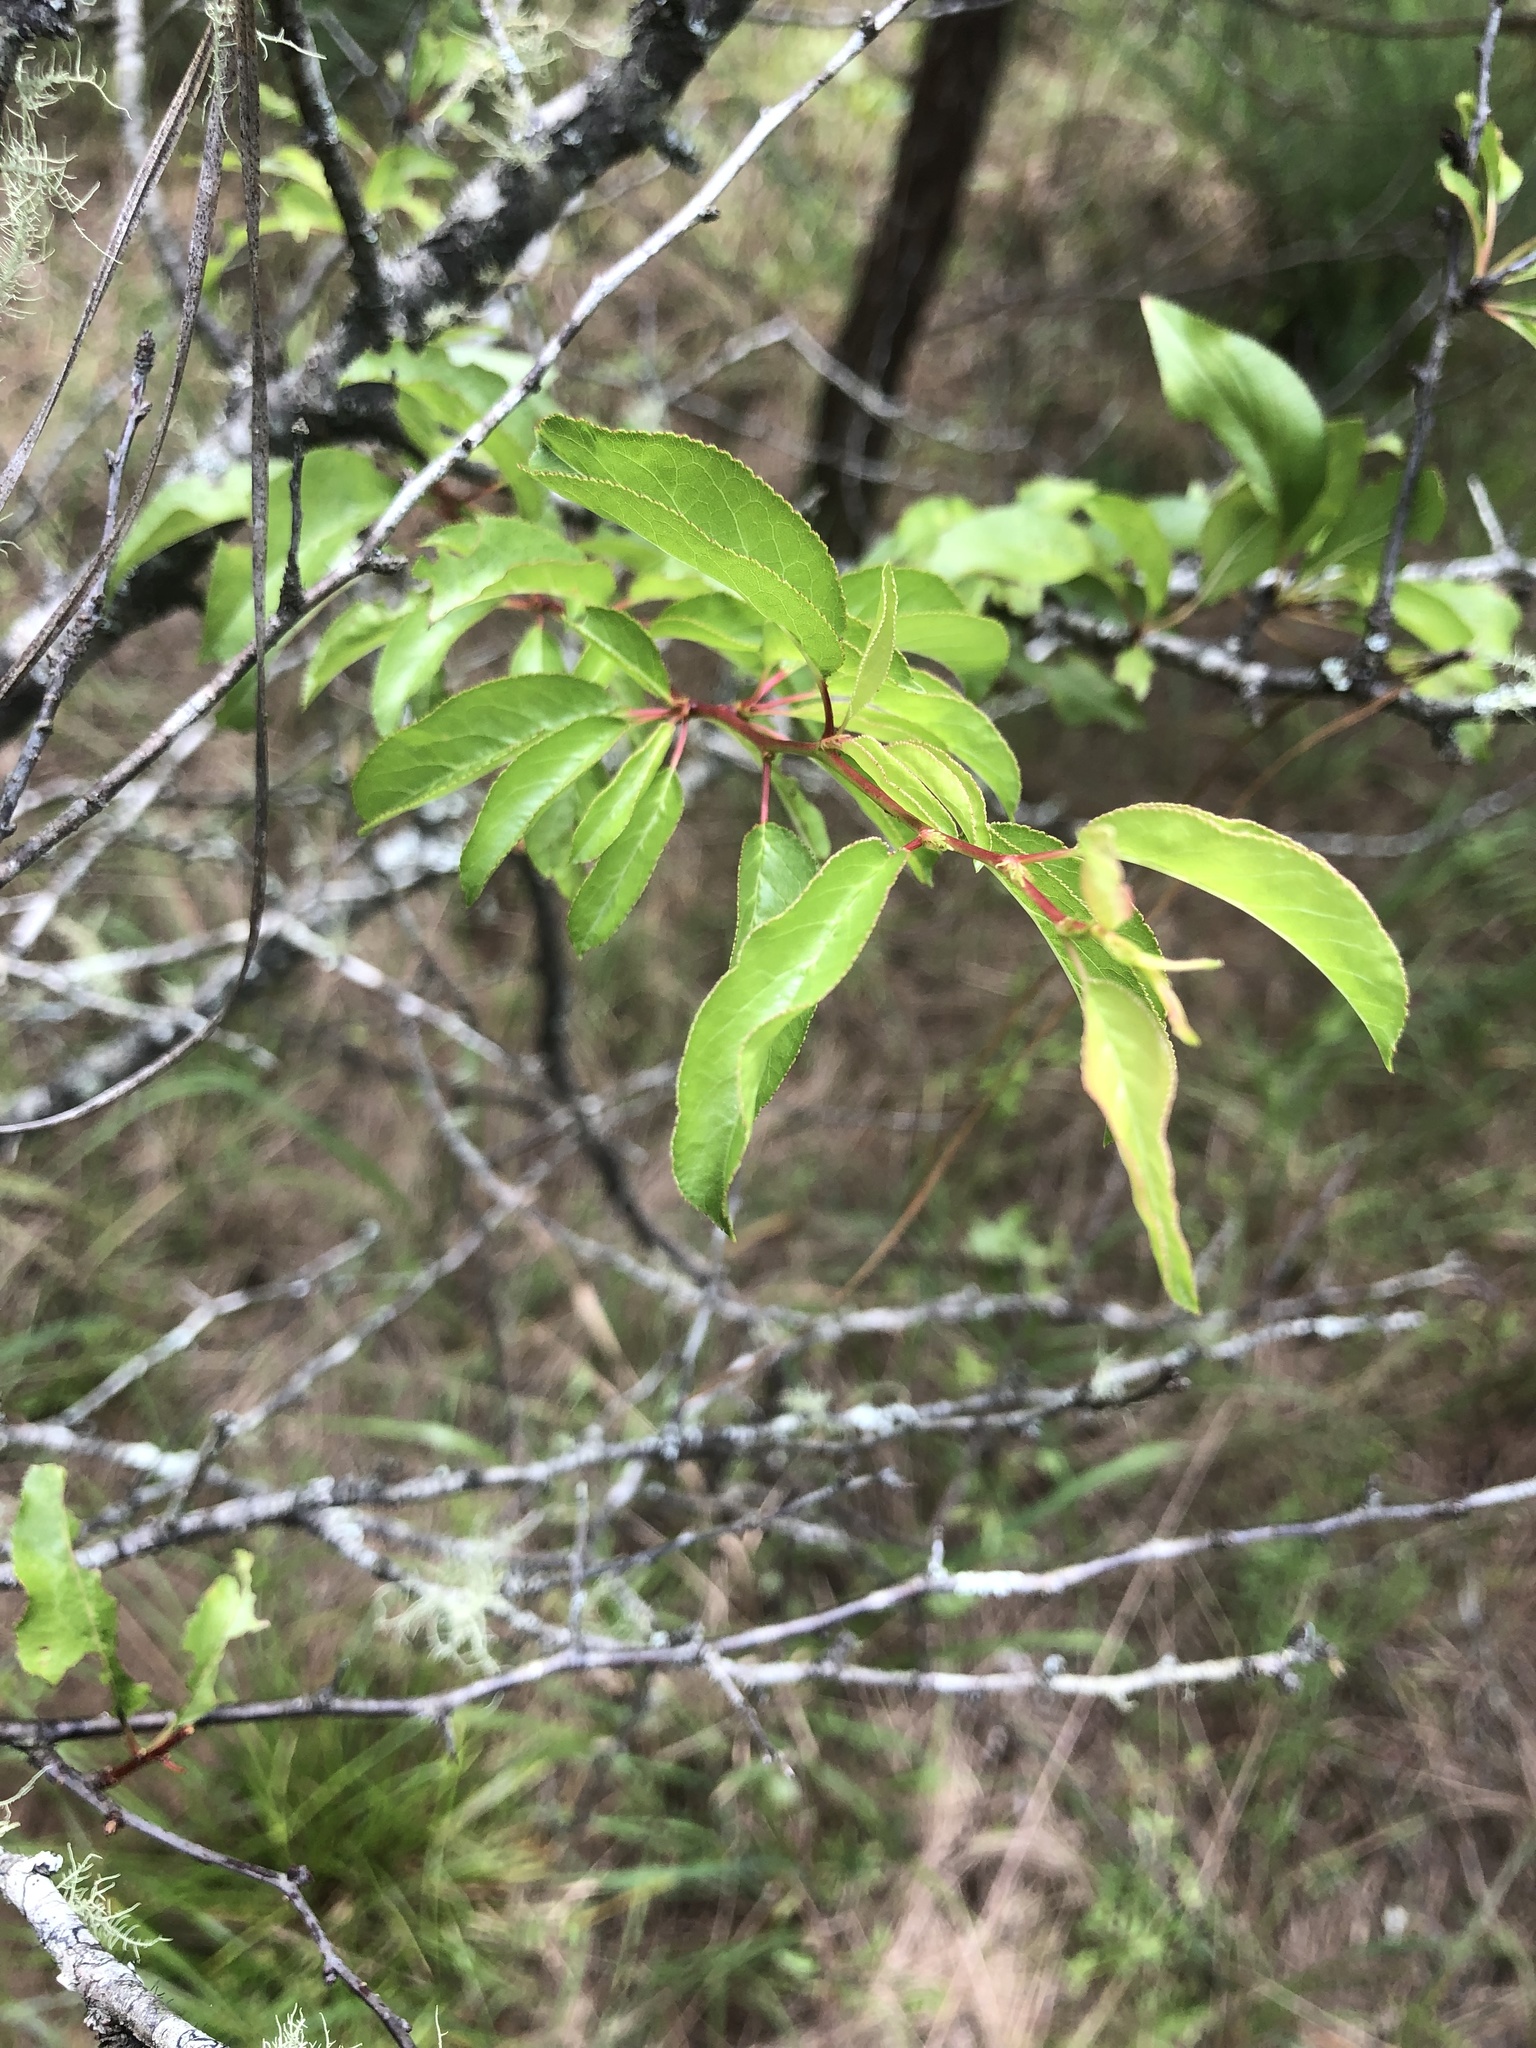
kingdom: Plantae
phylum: Tracheophyta
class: Magnoliopsida
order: Rosales
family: Rosaceae
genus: Prunus
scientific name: Prunus angustifolia
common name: Cherokee plum
